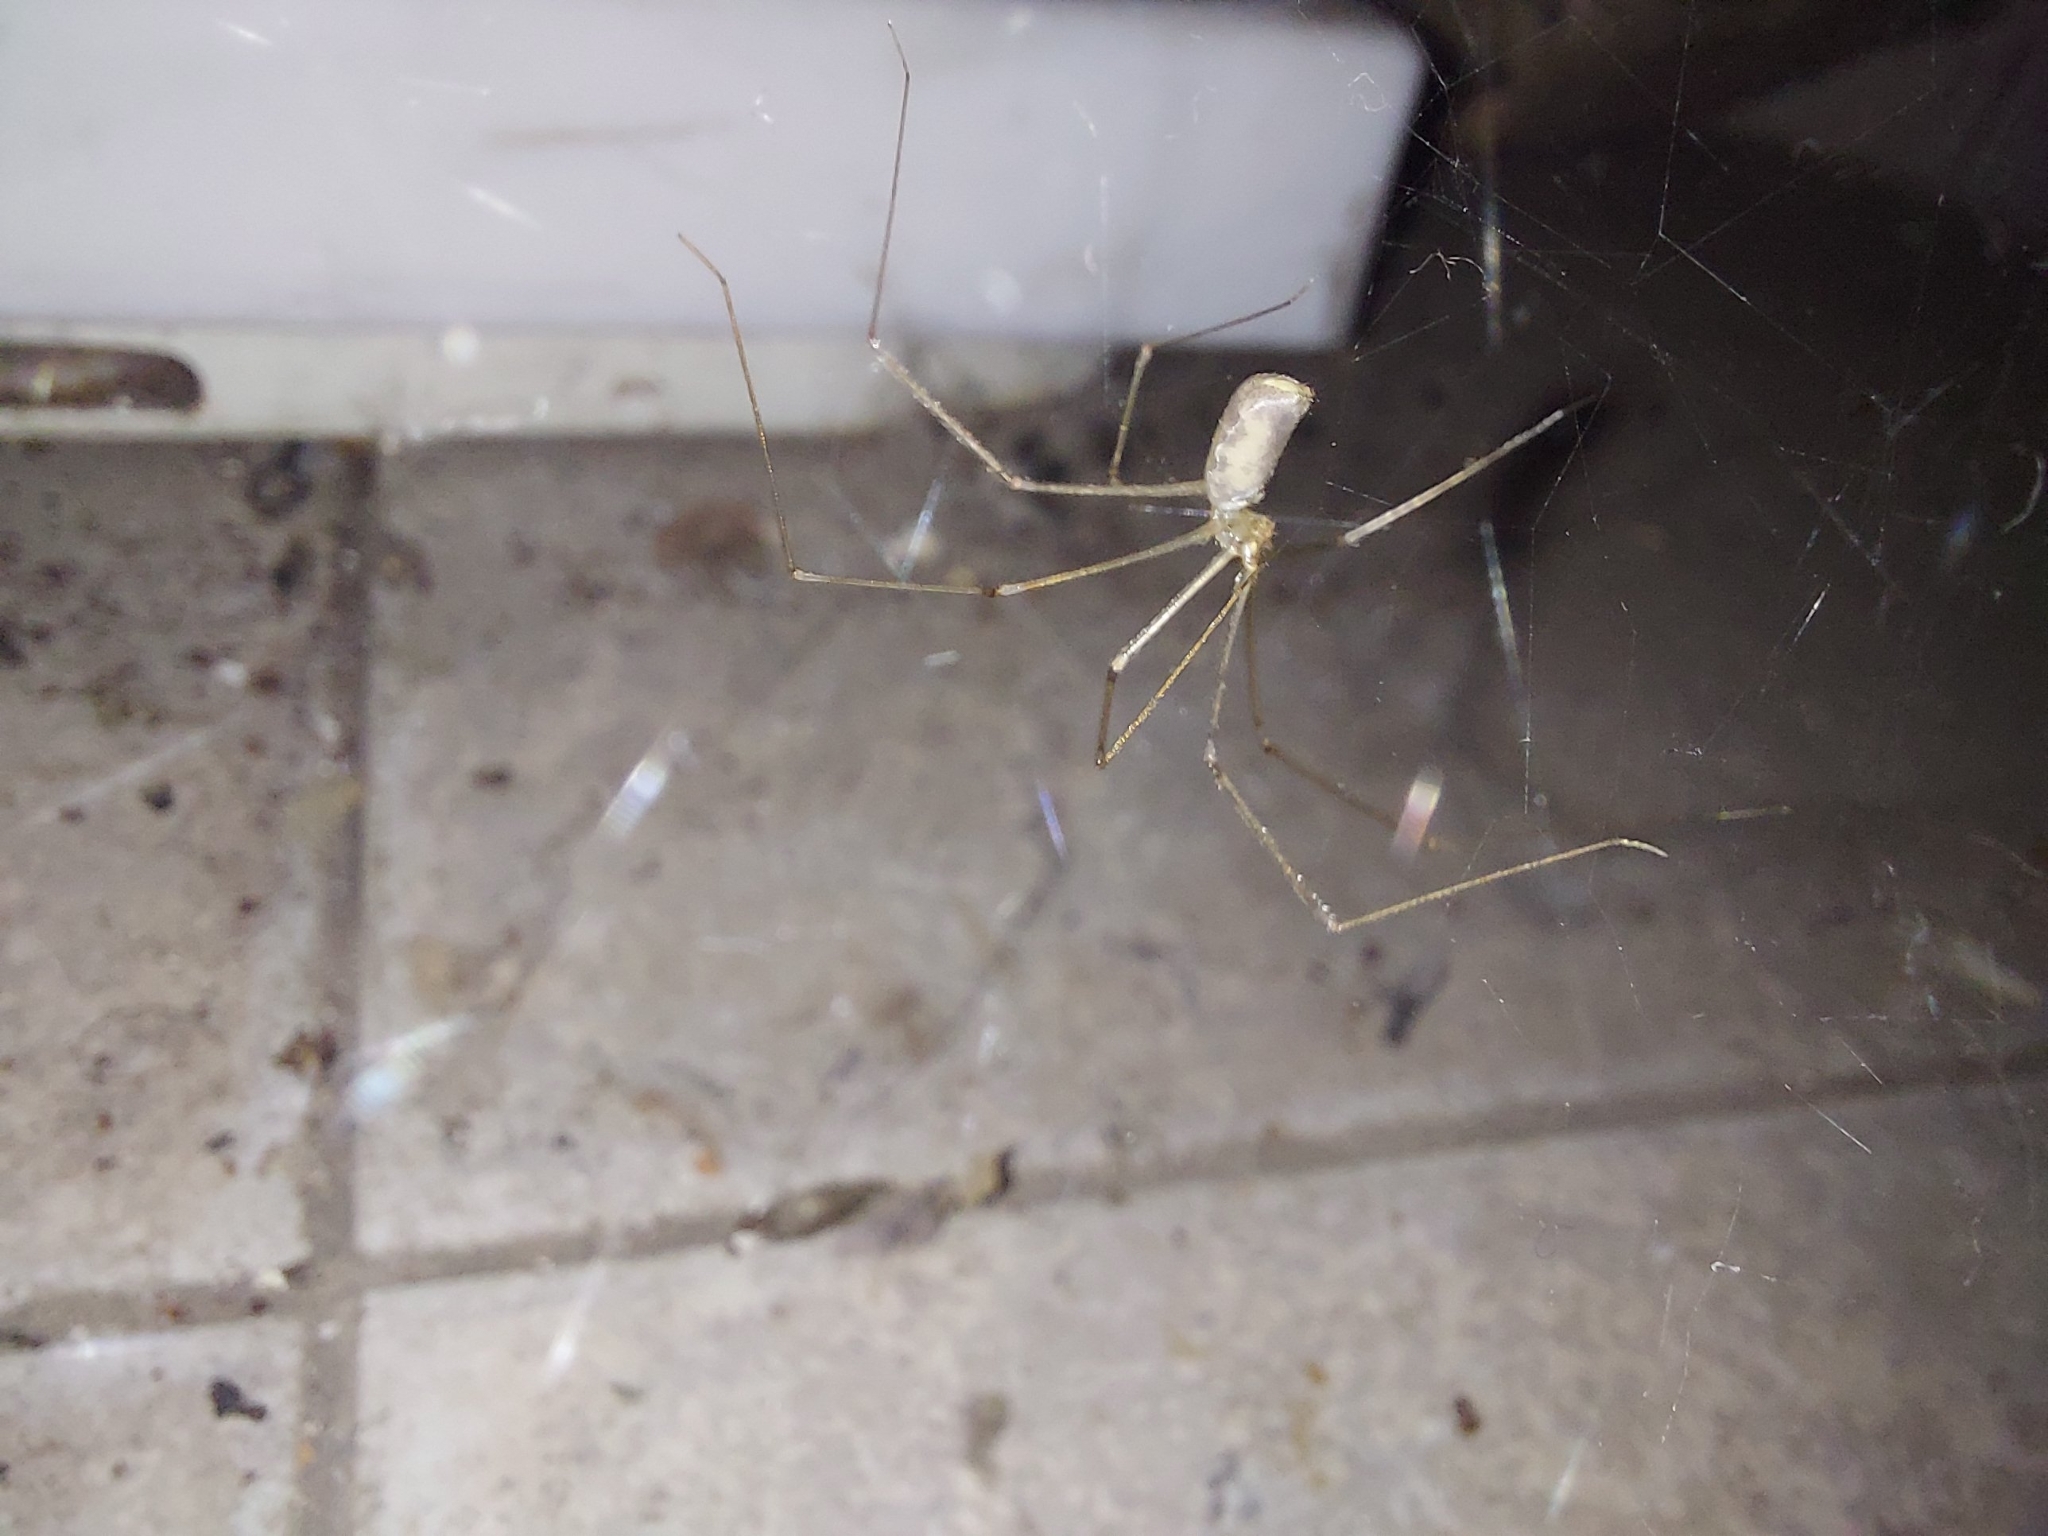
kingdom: Animalia
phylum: Arthropoda
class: Arachnida
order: Araneae
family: Pholcidae
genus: Pholcus
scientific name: Pholcus phalangioides
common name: Longbodied cellar spider
